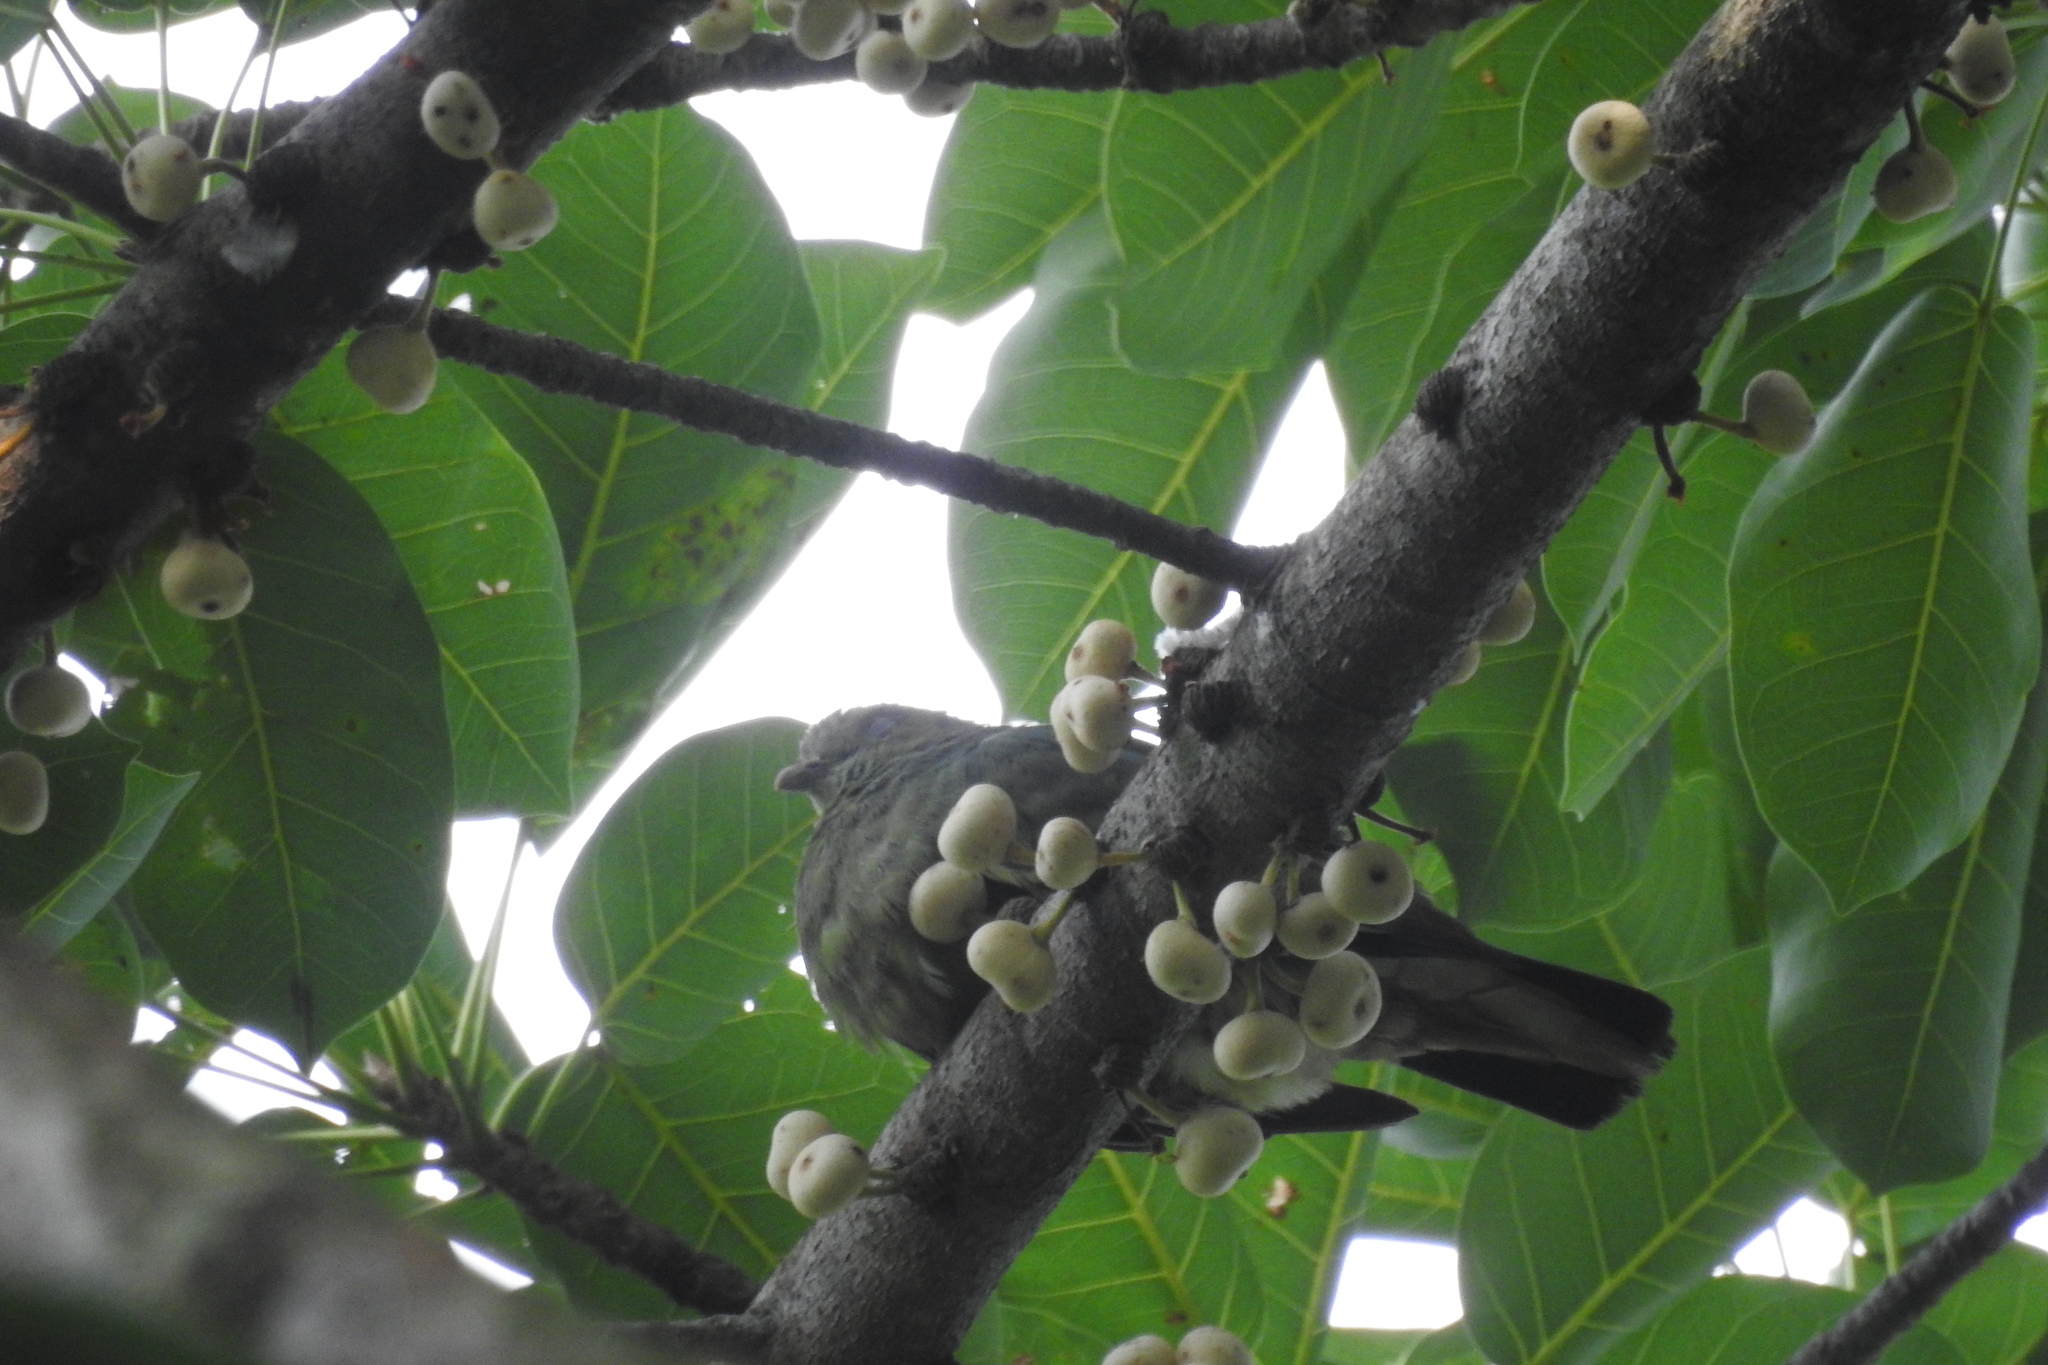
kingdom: Animalia
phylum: Chordata
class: Aves
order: Columbiformes
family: Columbidae
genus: Treron
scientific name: Treron vernans
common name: Pink-necked green pigeon
